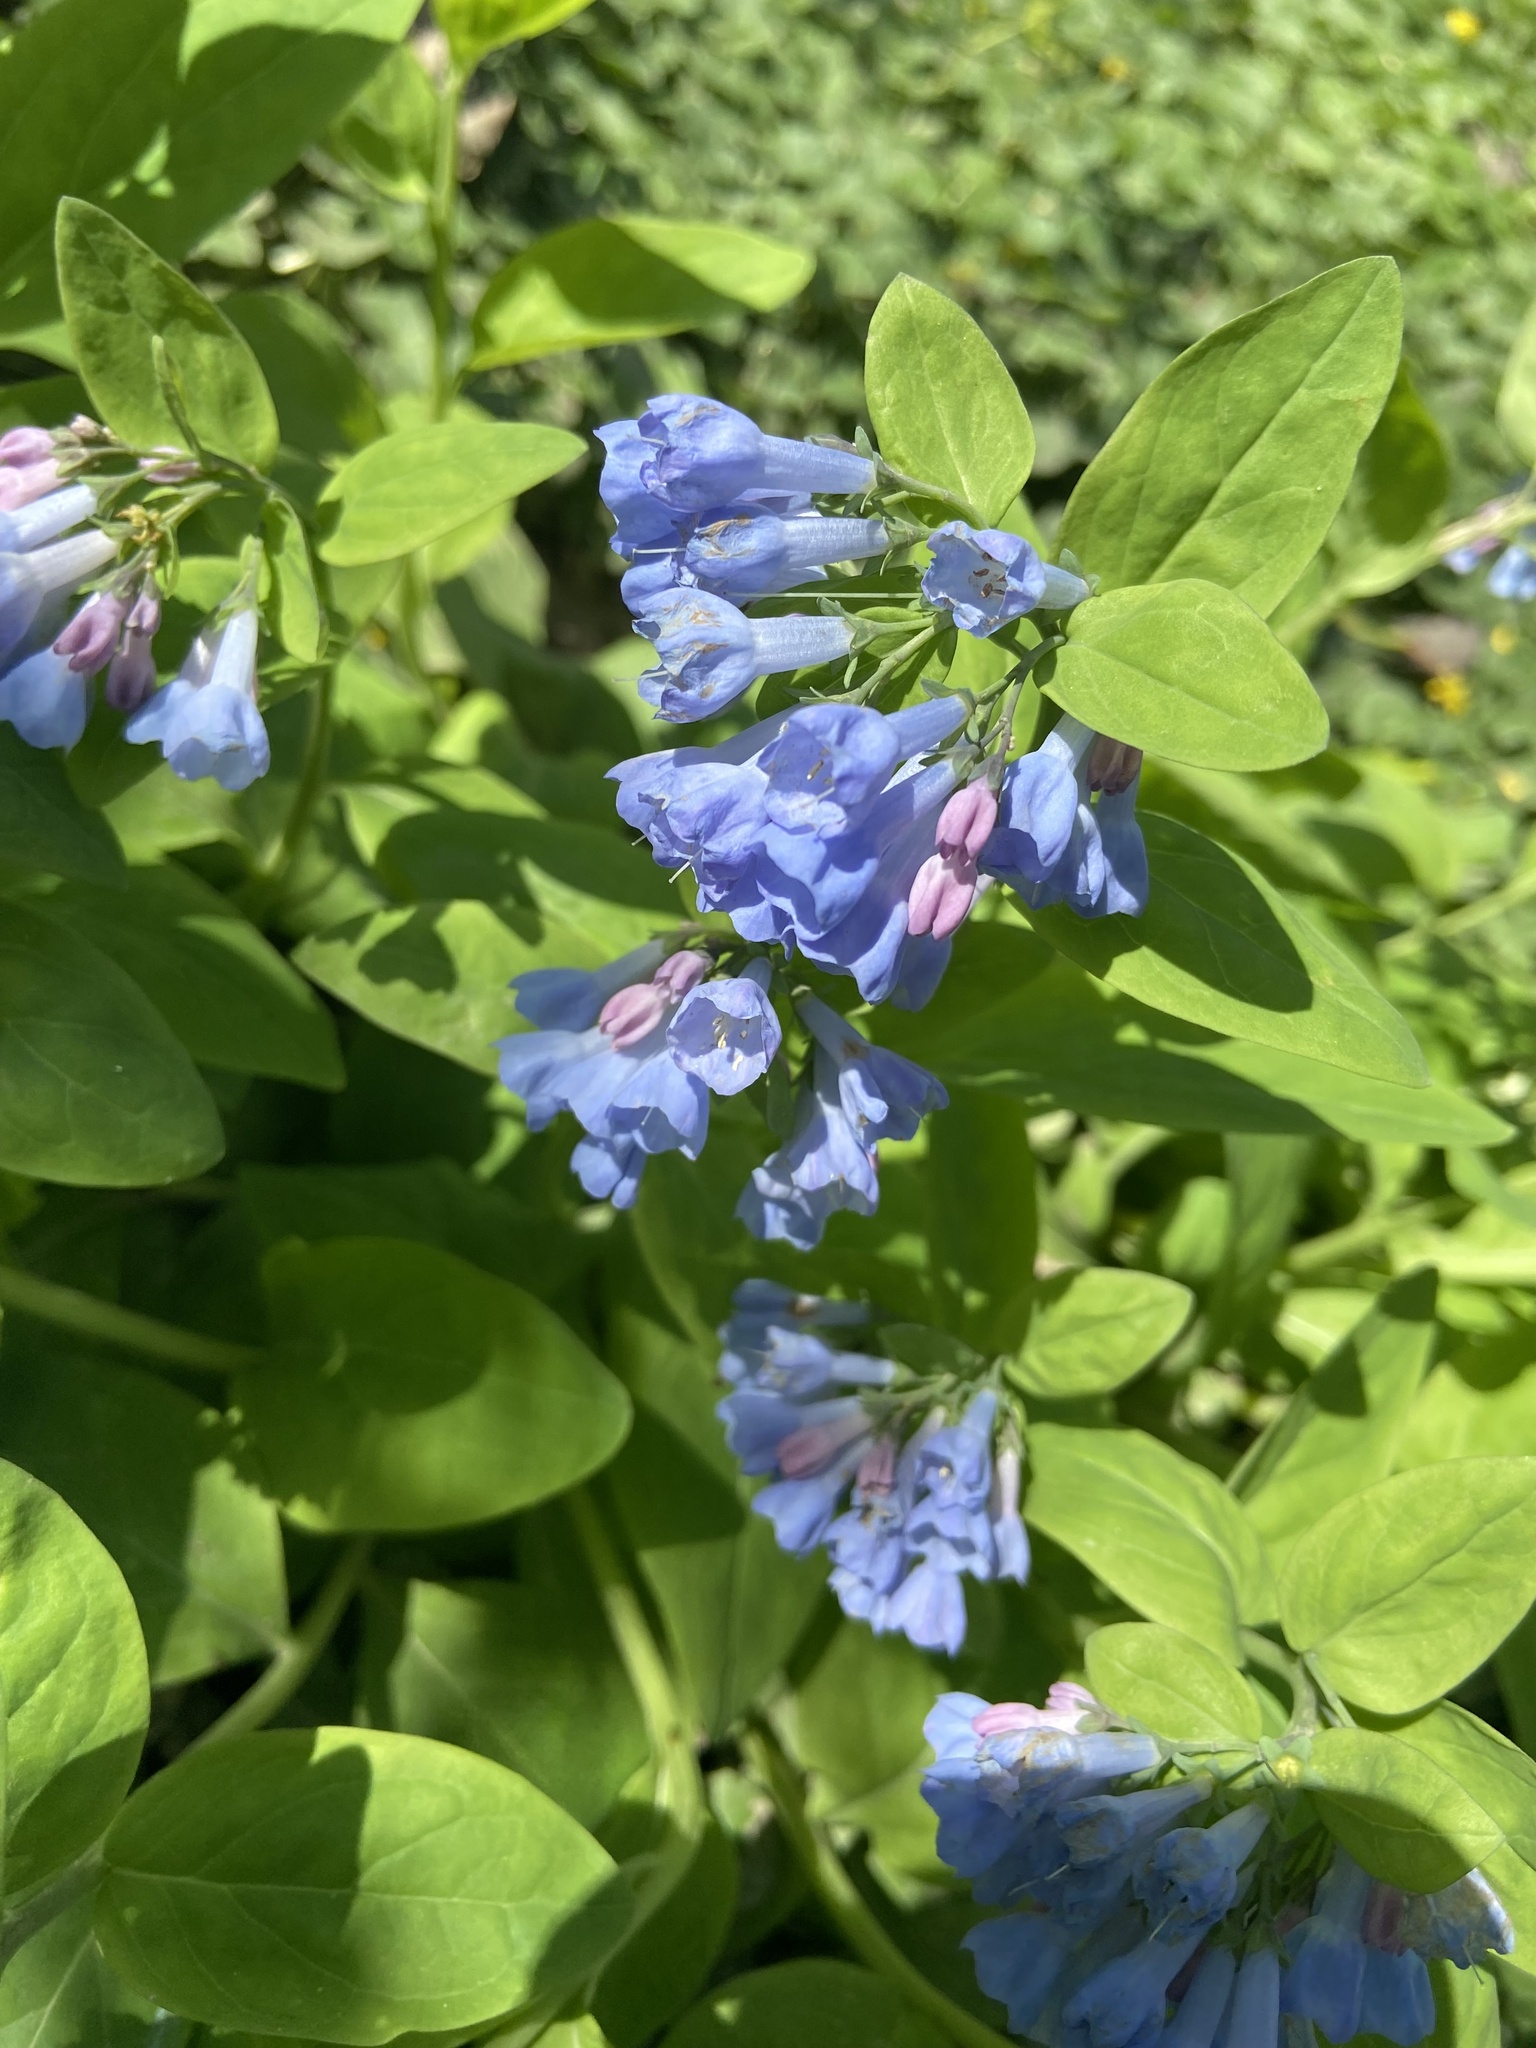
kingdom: Plantae
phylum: Tracheophyta
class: Magnoliopsida
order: Boraginales
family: Boraginaceae
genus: Mertensia
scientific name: Mertensia virginica
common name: Virginia bluebells
